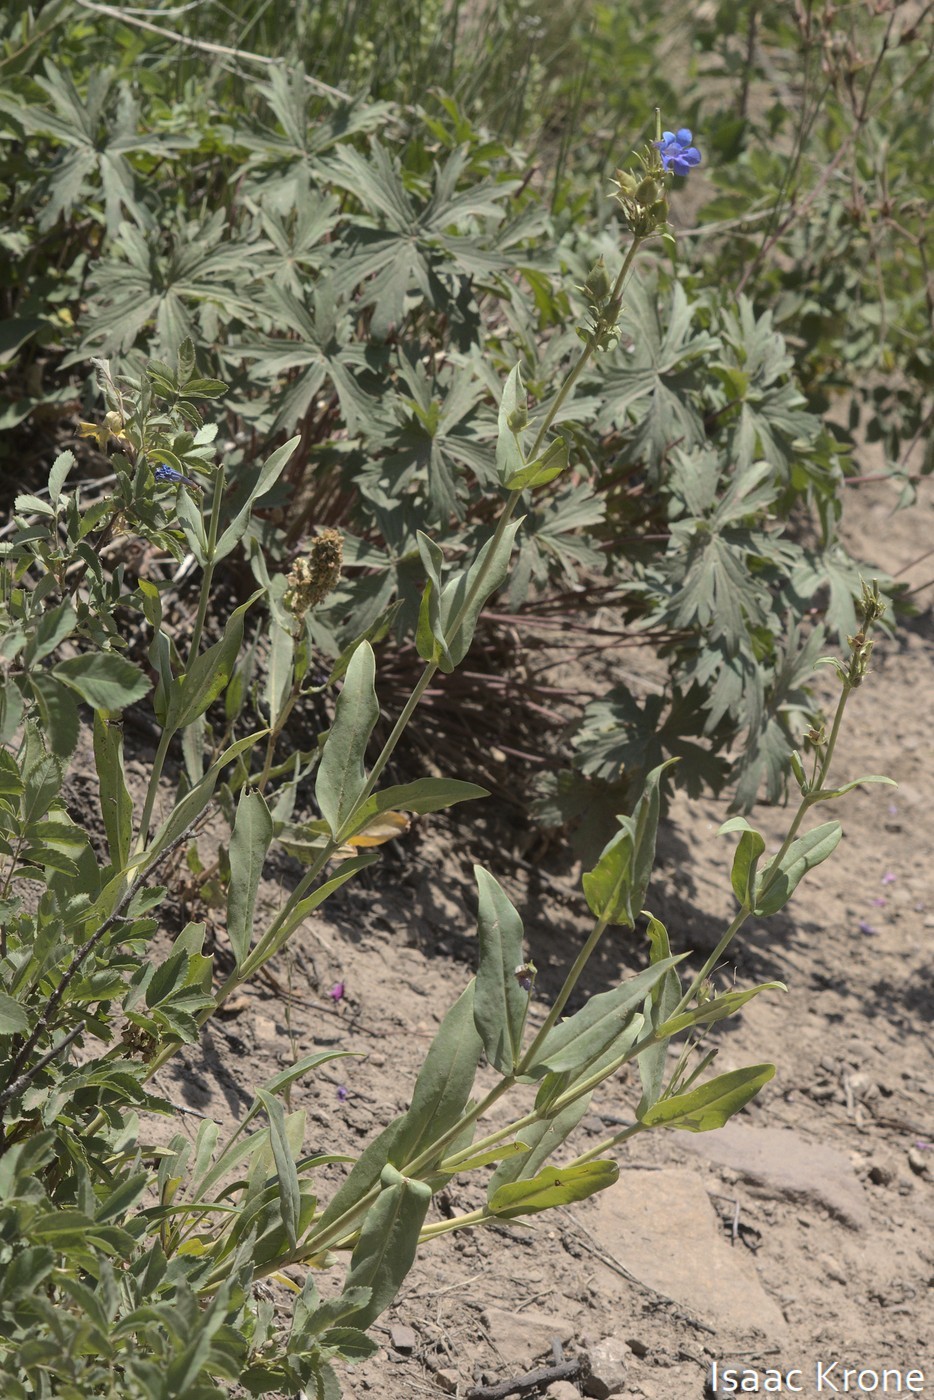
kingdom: Plantae
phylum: Tracheophyta
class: Magnoliopsida
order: Lamiales
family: Plantaginaceae
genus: Penstemon
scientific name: Penstemon cyananthus
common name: Wasatch penstemon
